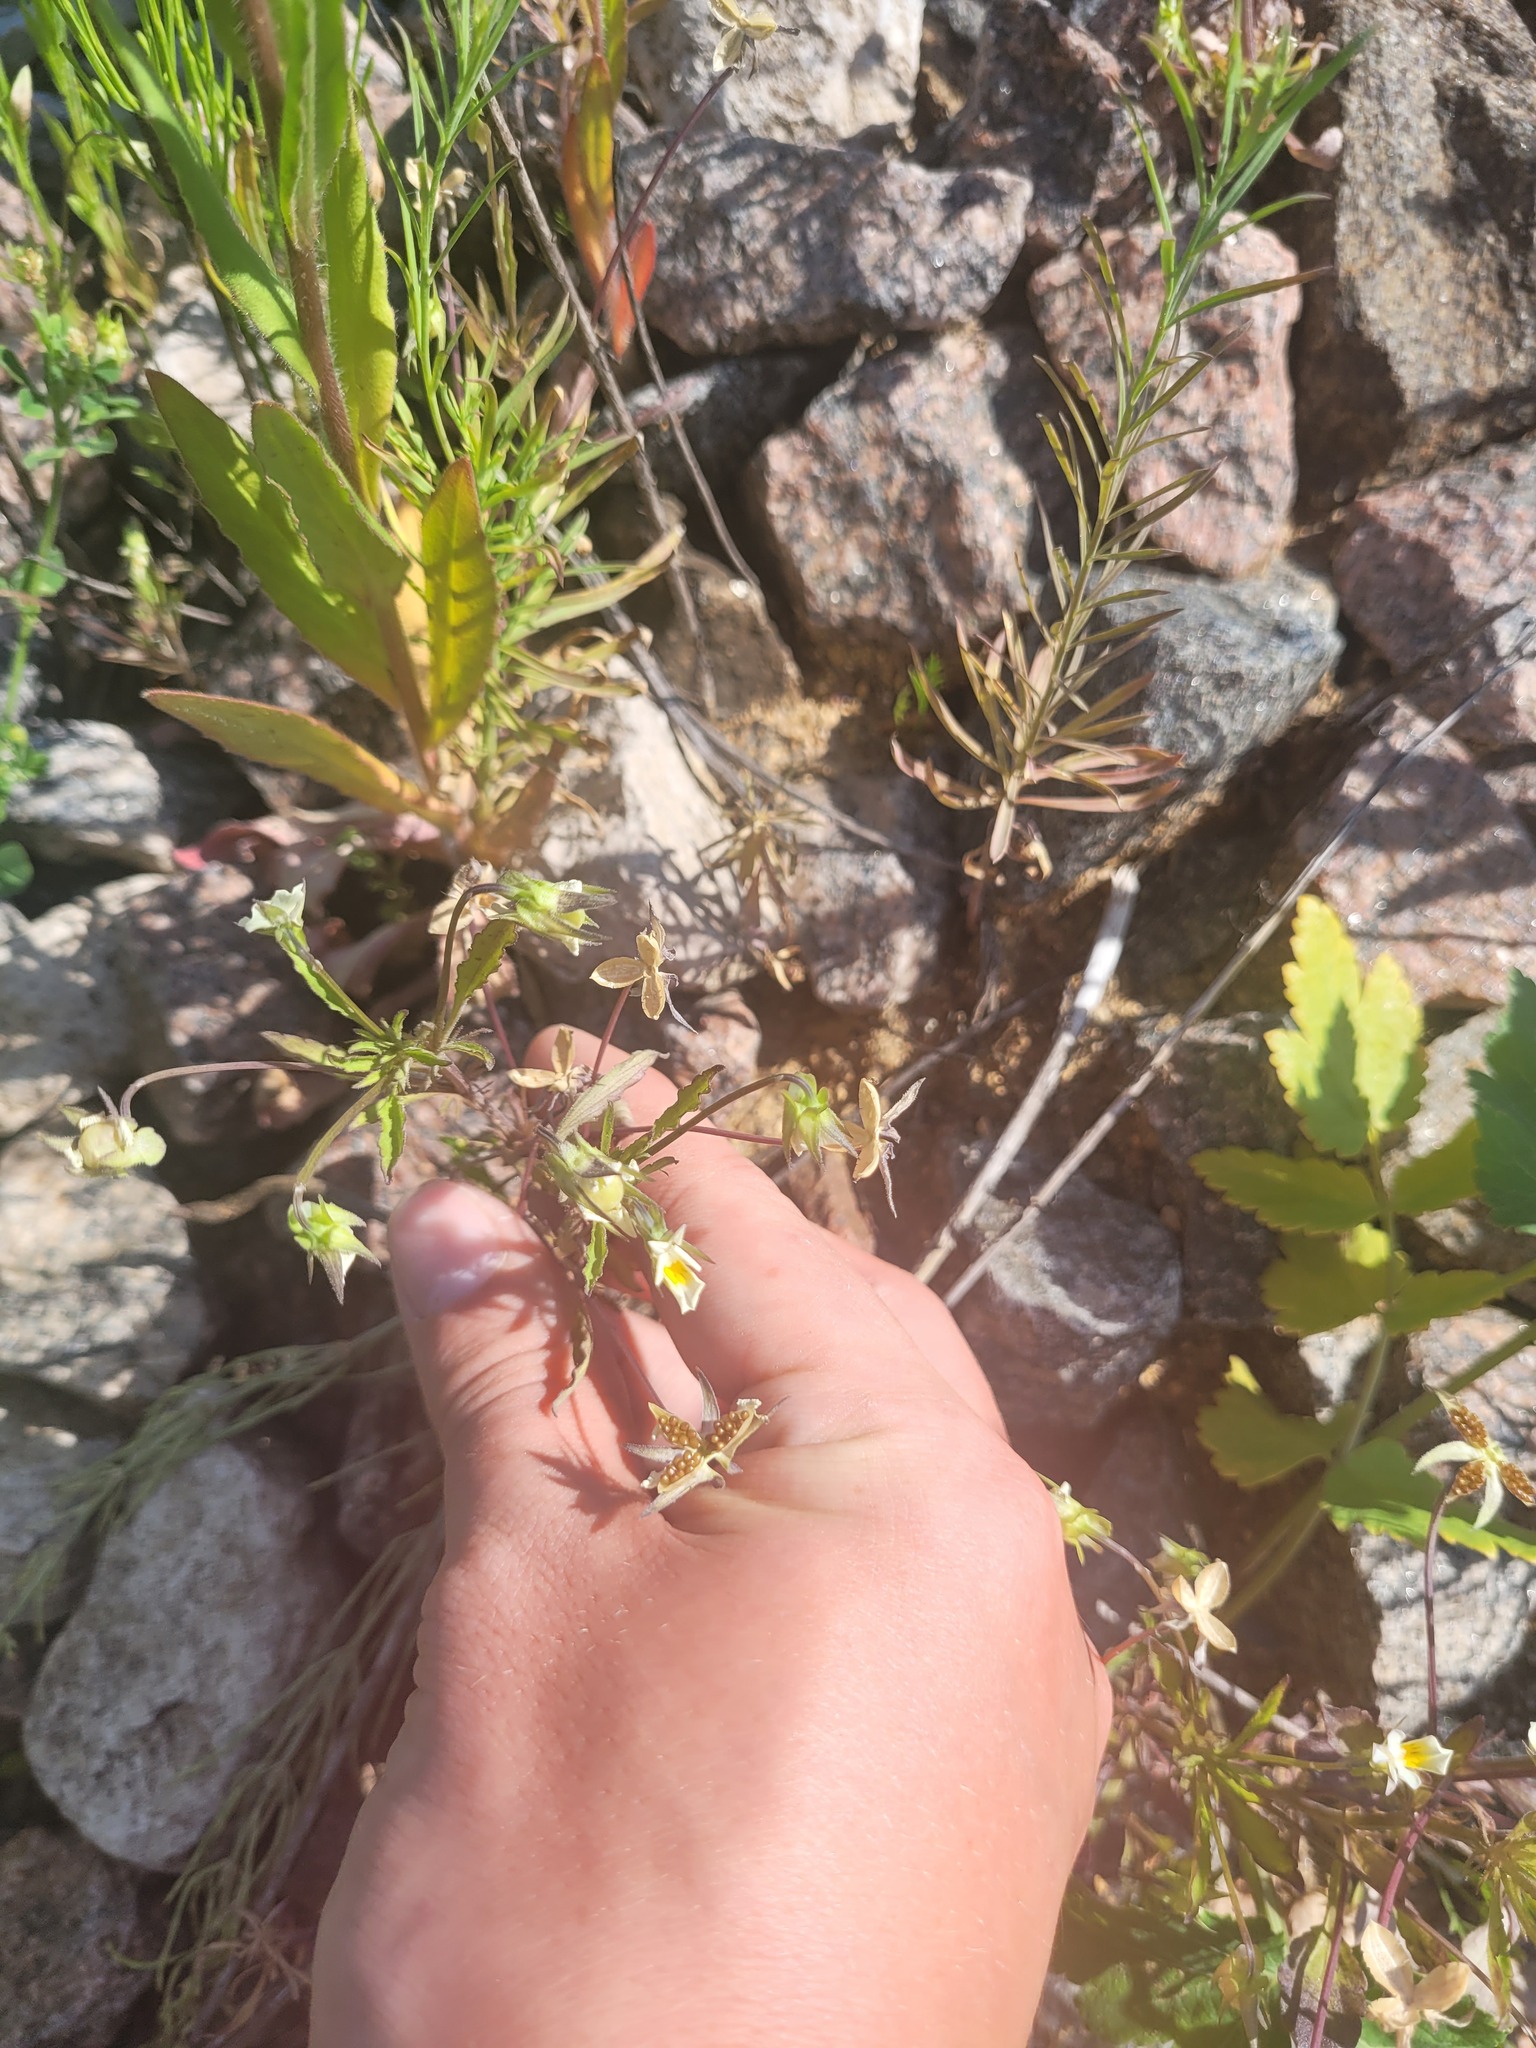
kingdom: Plantae
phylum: Tracheophyta
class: Magnoliopsida
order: Malpighiales
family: Violaceae
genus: Viola
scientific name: Viola arvensis
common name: Field pansy
